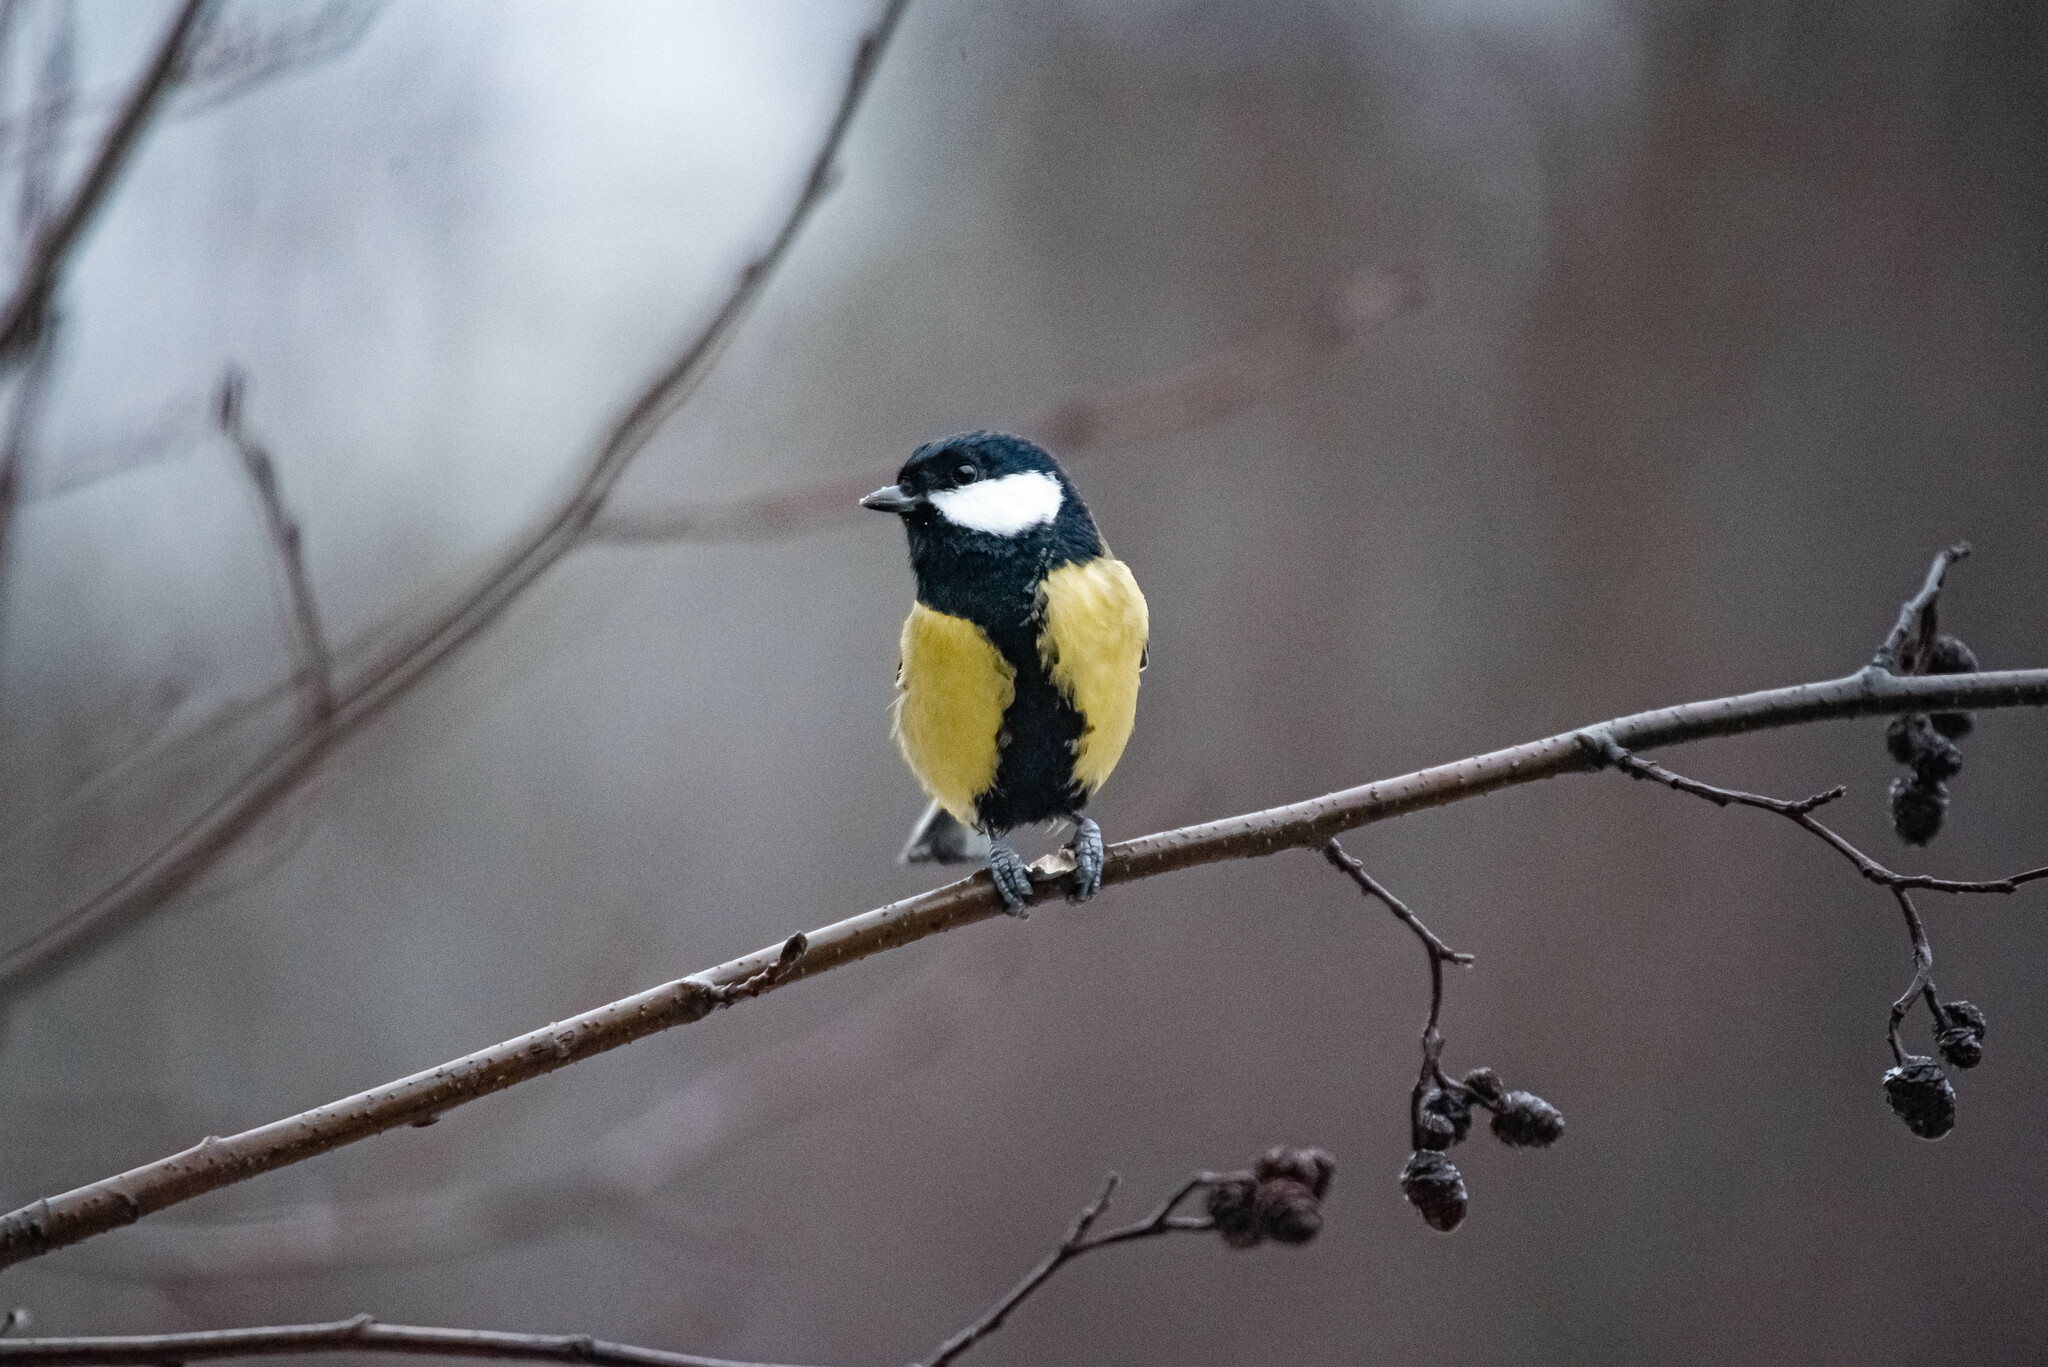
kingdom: Animalia
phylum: Chordata
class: Aves
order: Passeriformes
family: Paridae
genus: Parus
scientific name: Parus major
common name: Great tit
